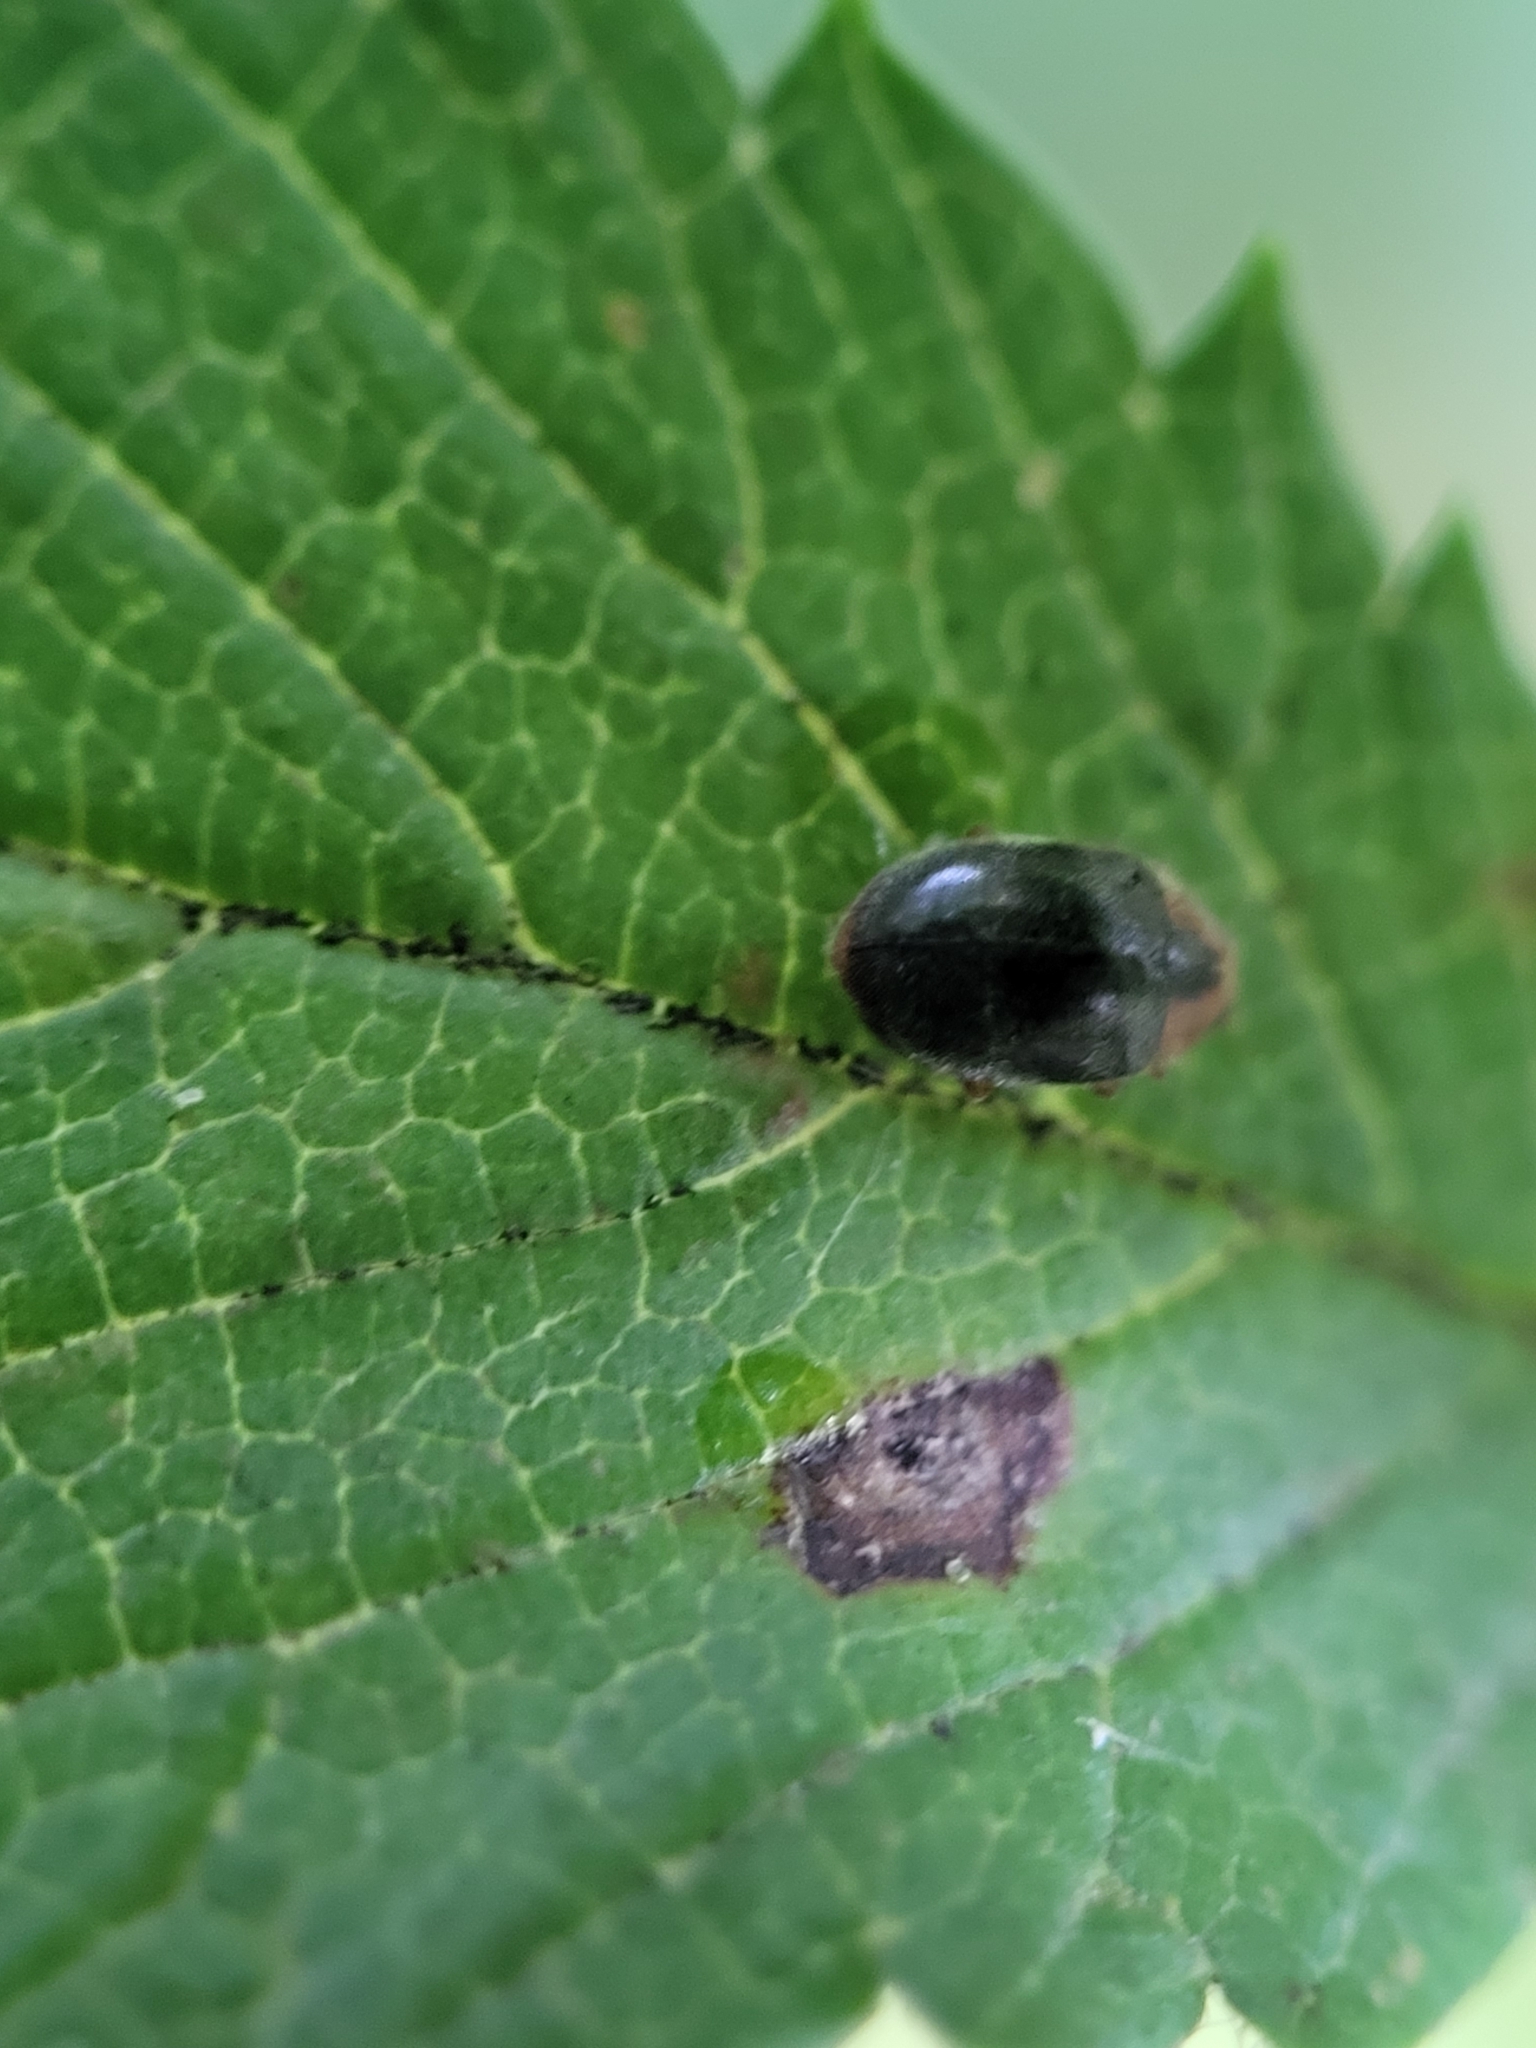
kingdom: Animalia
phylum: Arthropoda
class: Insecta
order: Coleoptera
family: Coccinellidae
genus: Cryptolaemus
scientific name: Cryptolaemus montrouzieri
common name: Mealybug destroyer
